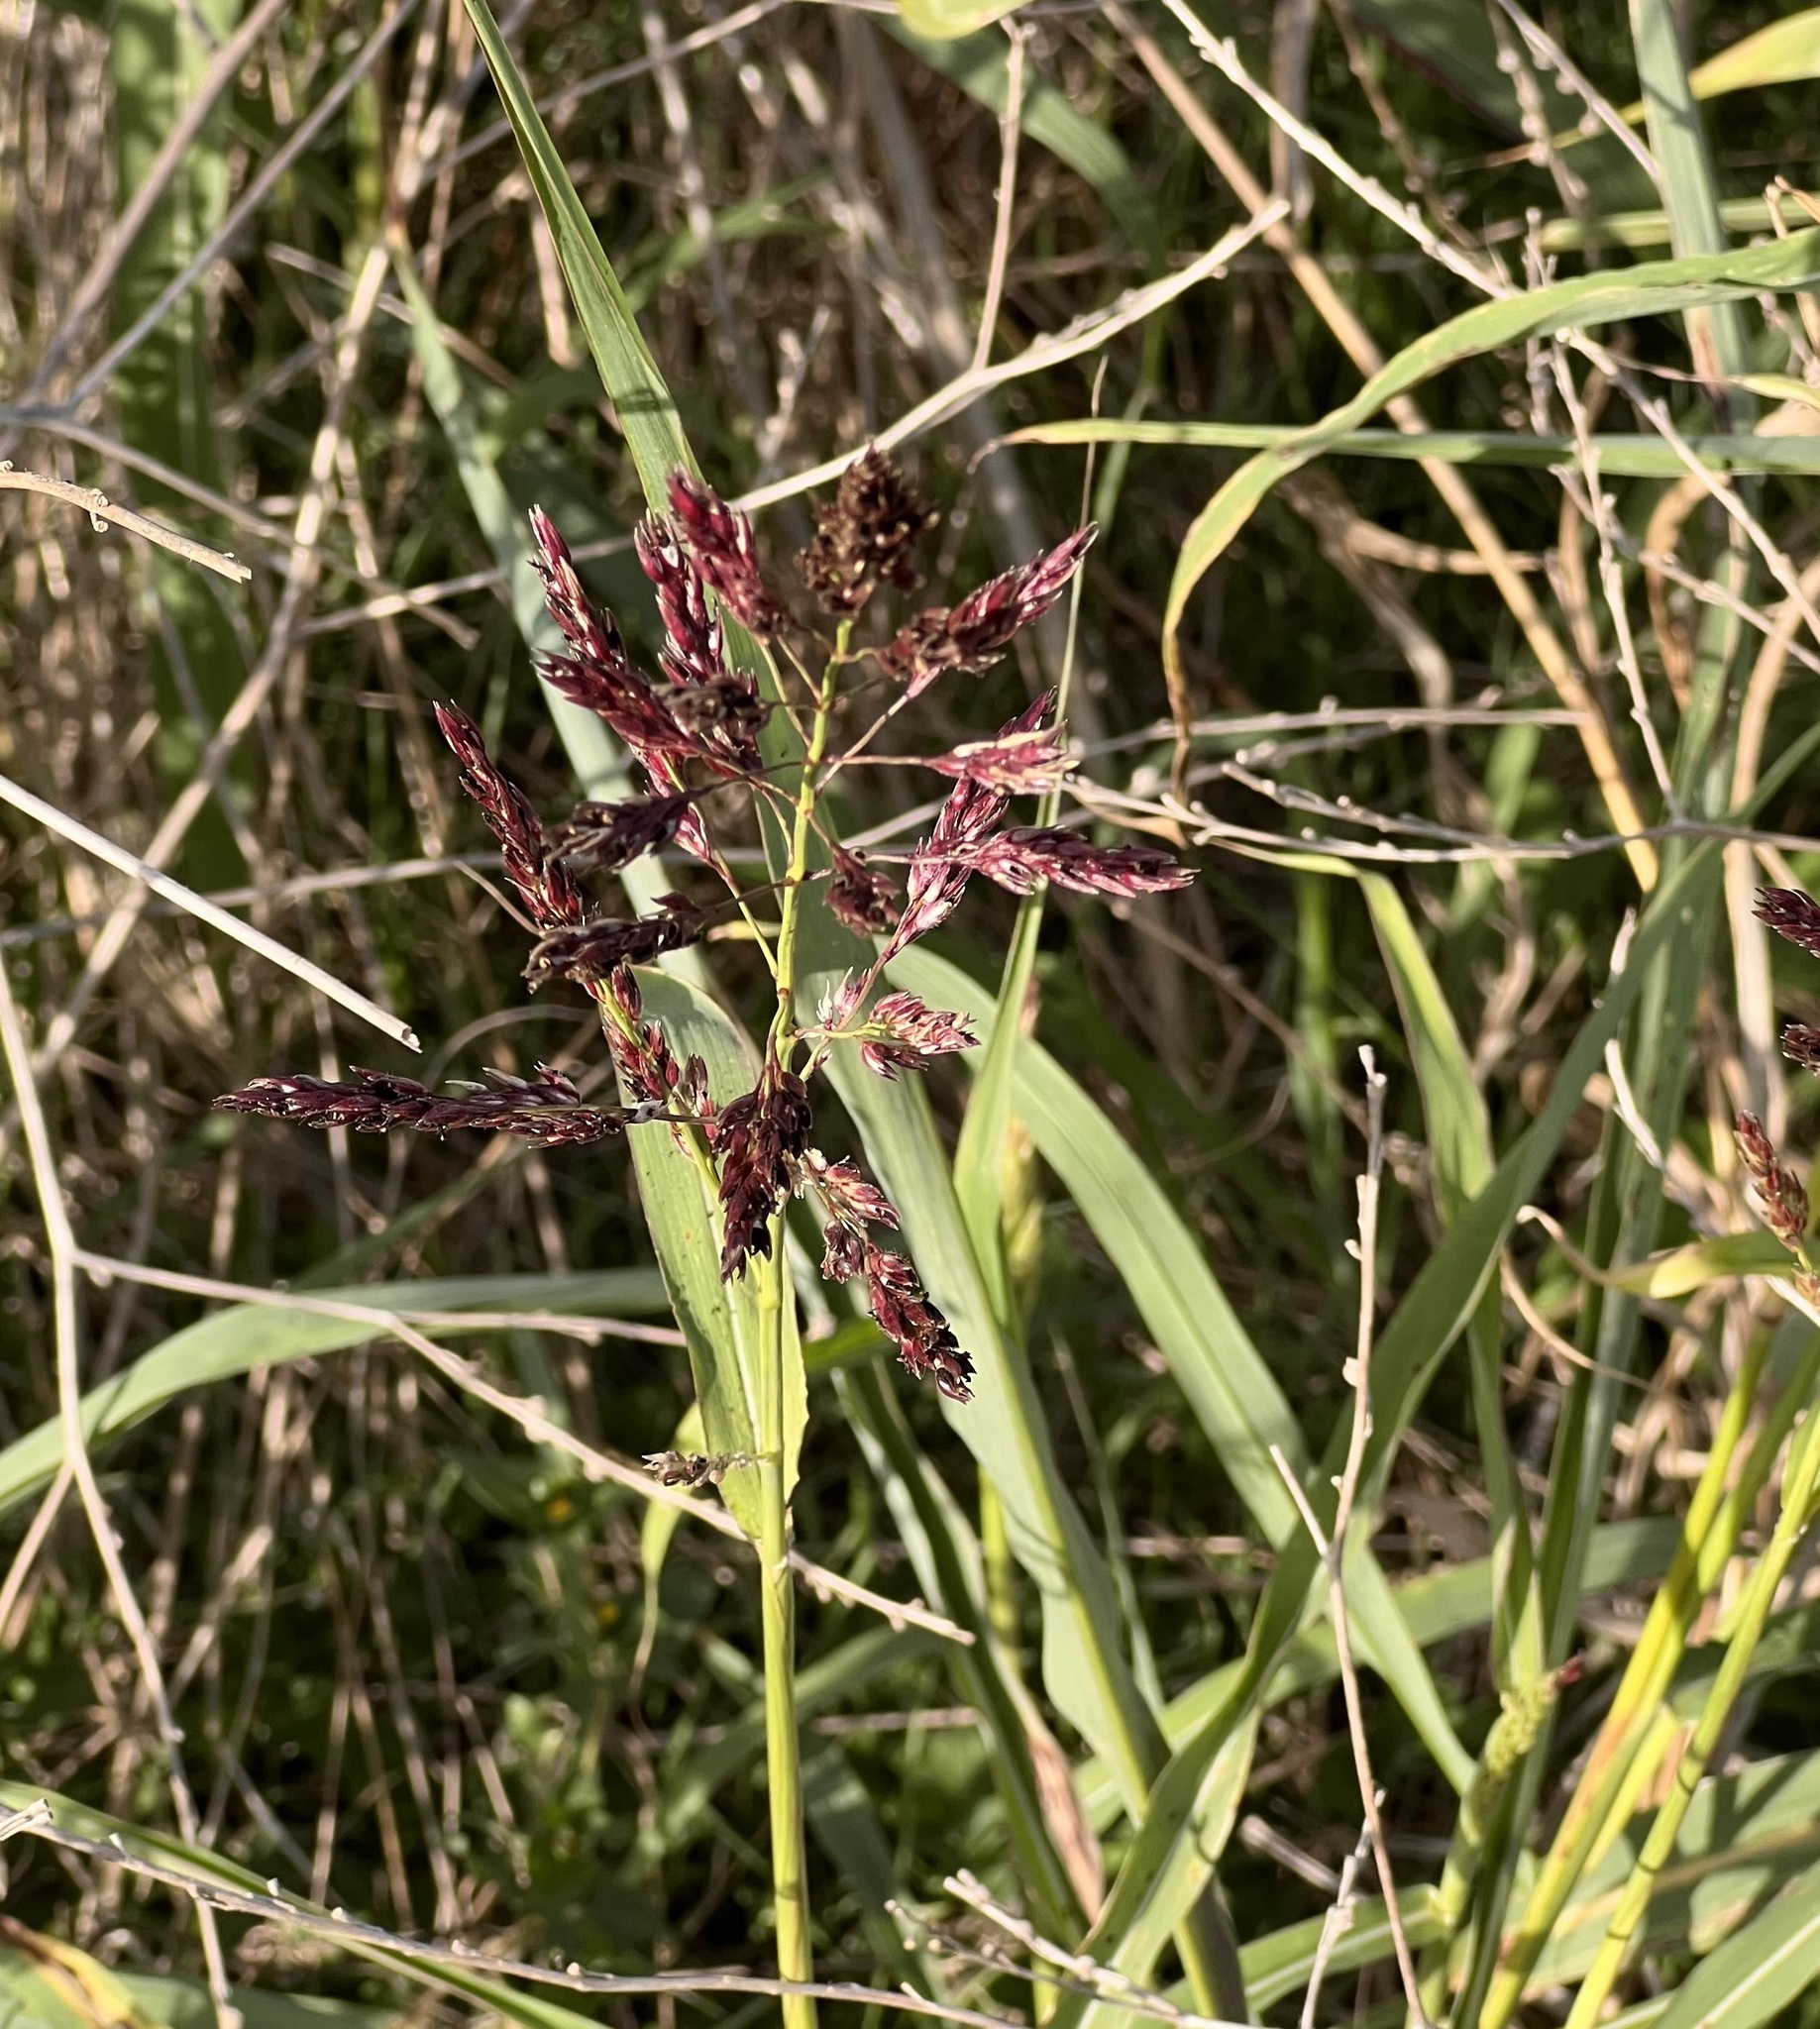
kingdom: Plantae
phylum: Tracheophyta
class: Liliopsida
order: Poales
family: Poaceae
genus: Sorghum
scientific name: Sorghum halepense
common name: Johnson-grass
